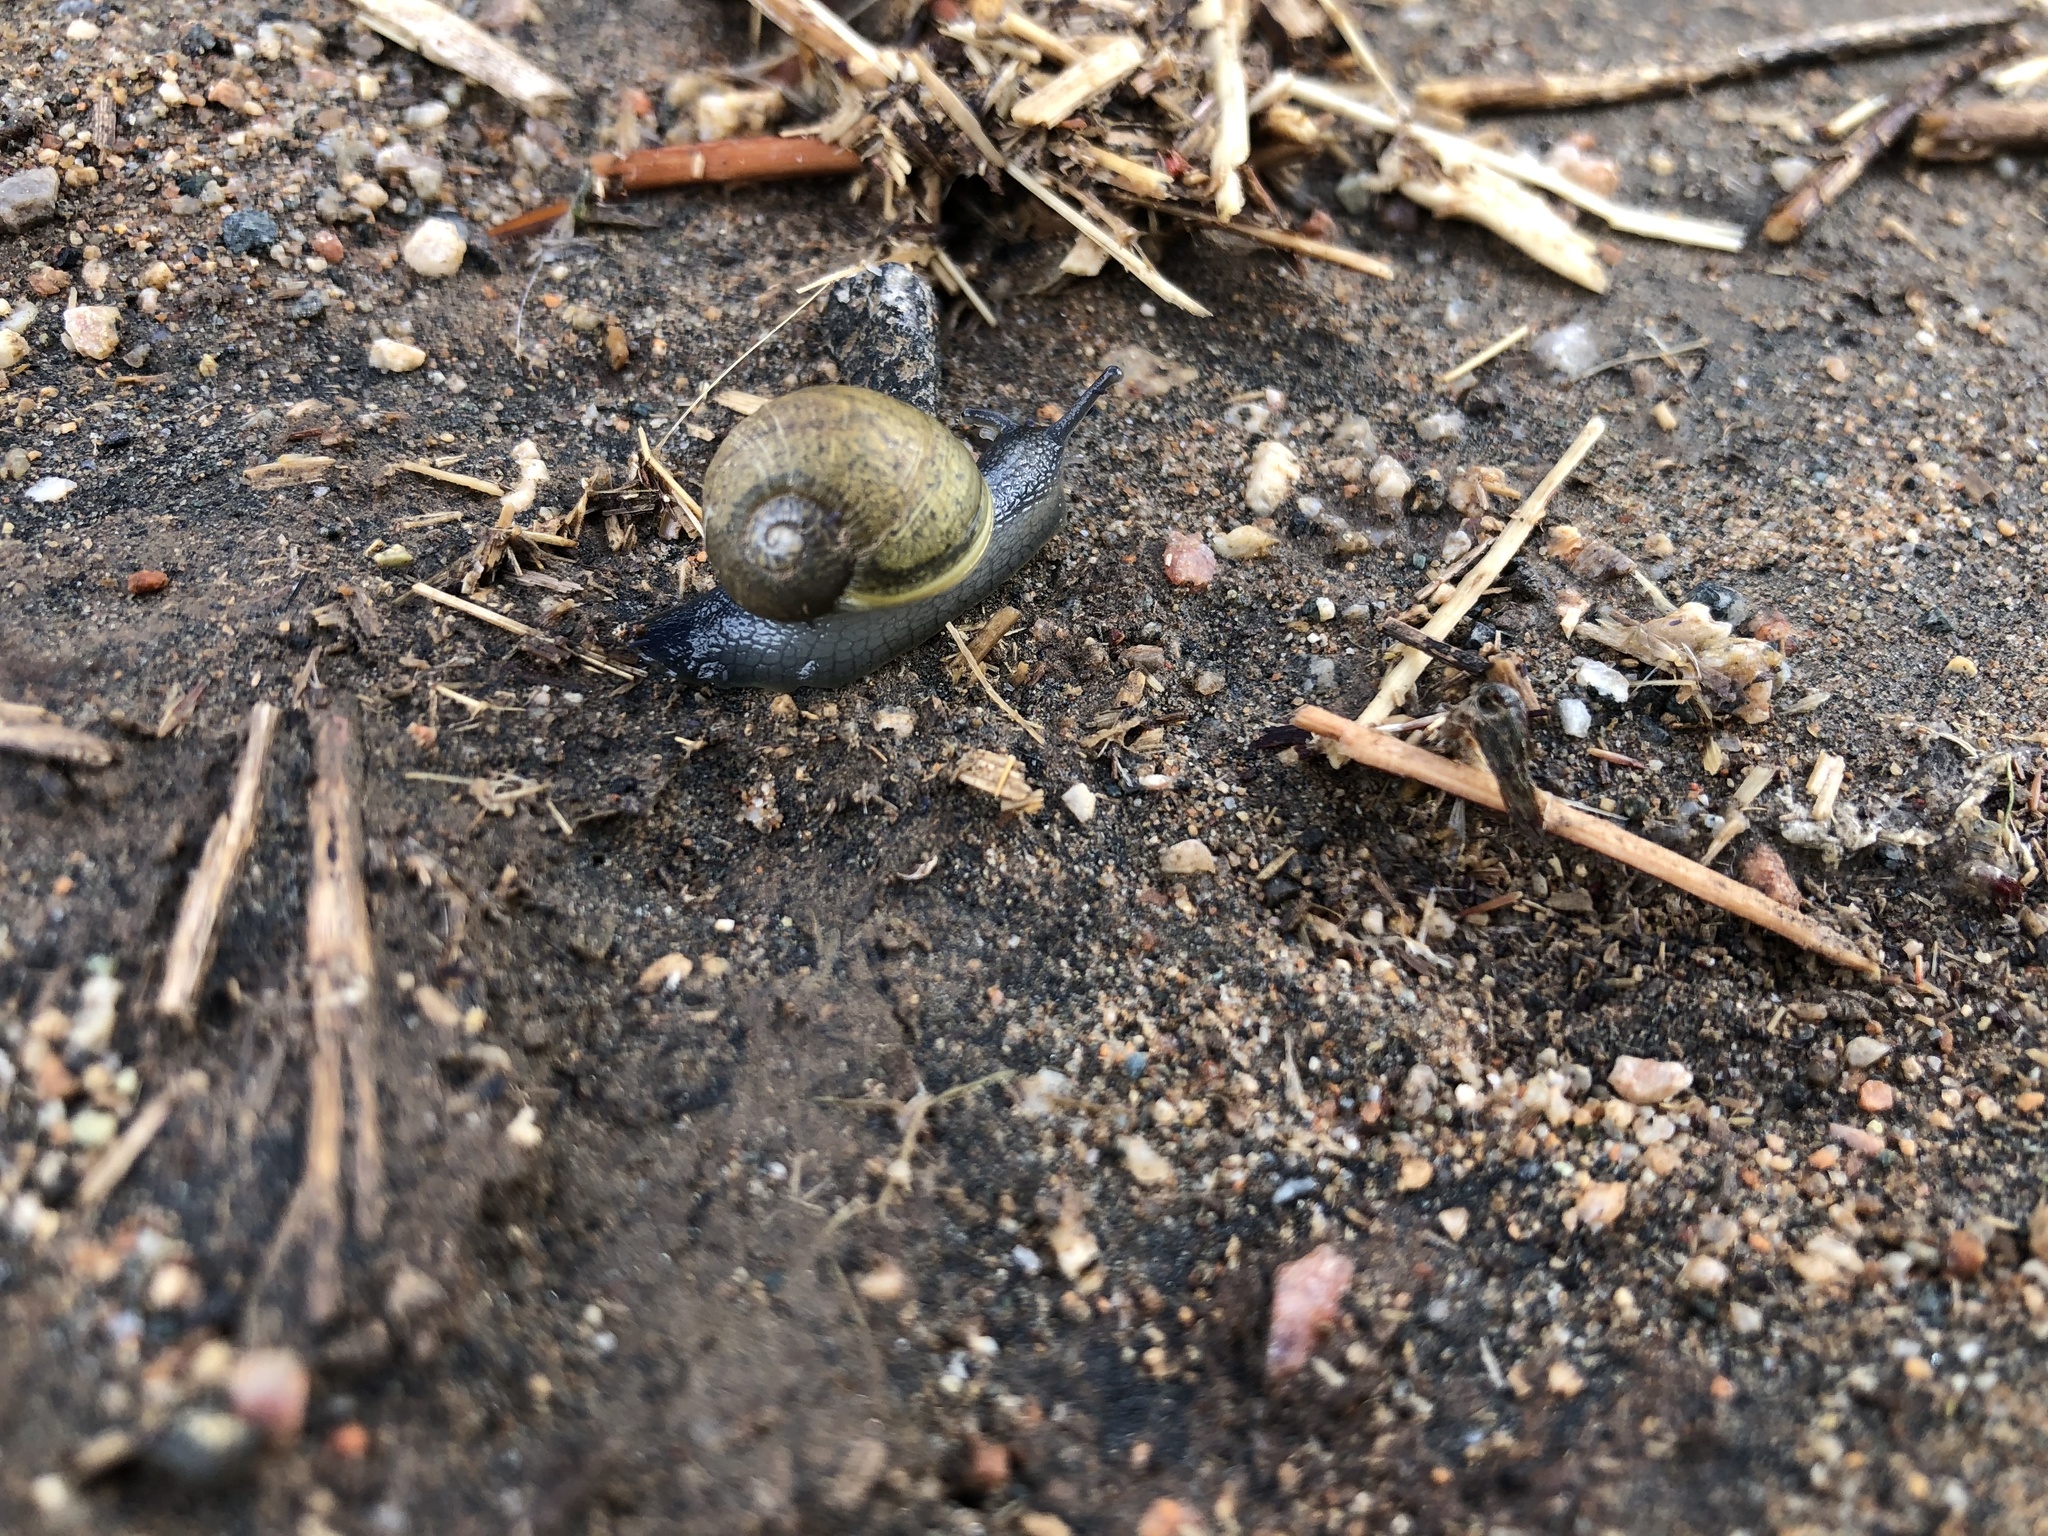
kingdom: Animalia
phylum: Mollusca
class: Gastropoda
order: Stylommatophora
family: Helicidae
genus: Cantareus
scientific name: Cantareus apertus
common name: Green gardensnail
